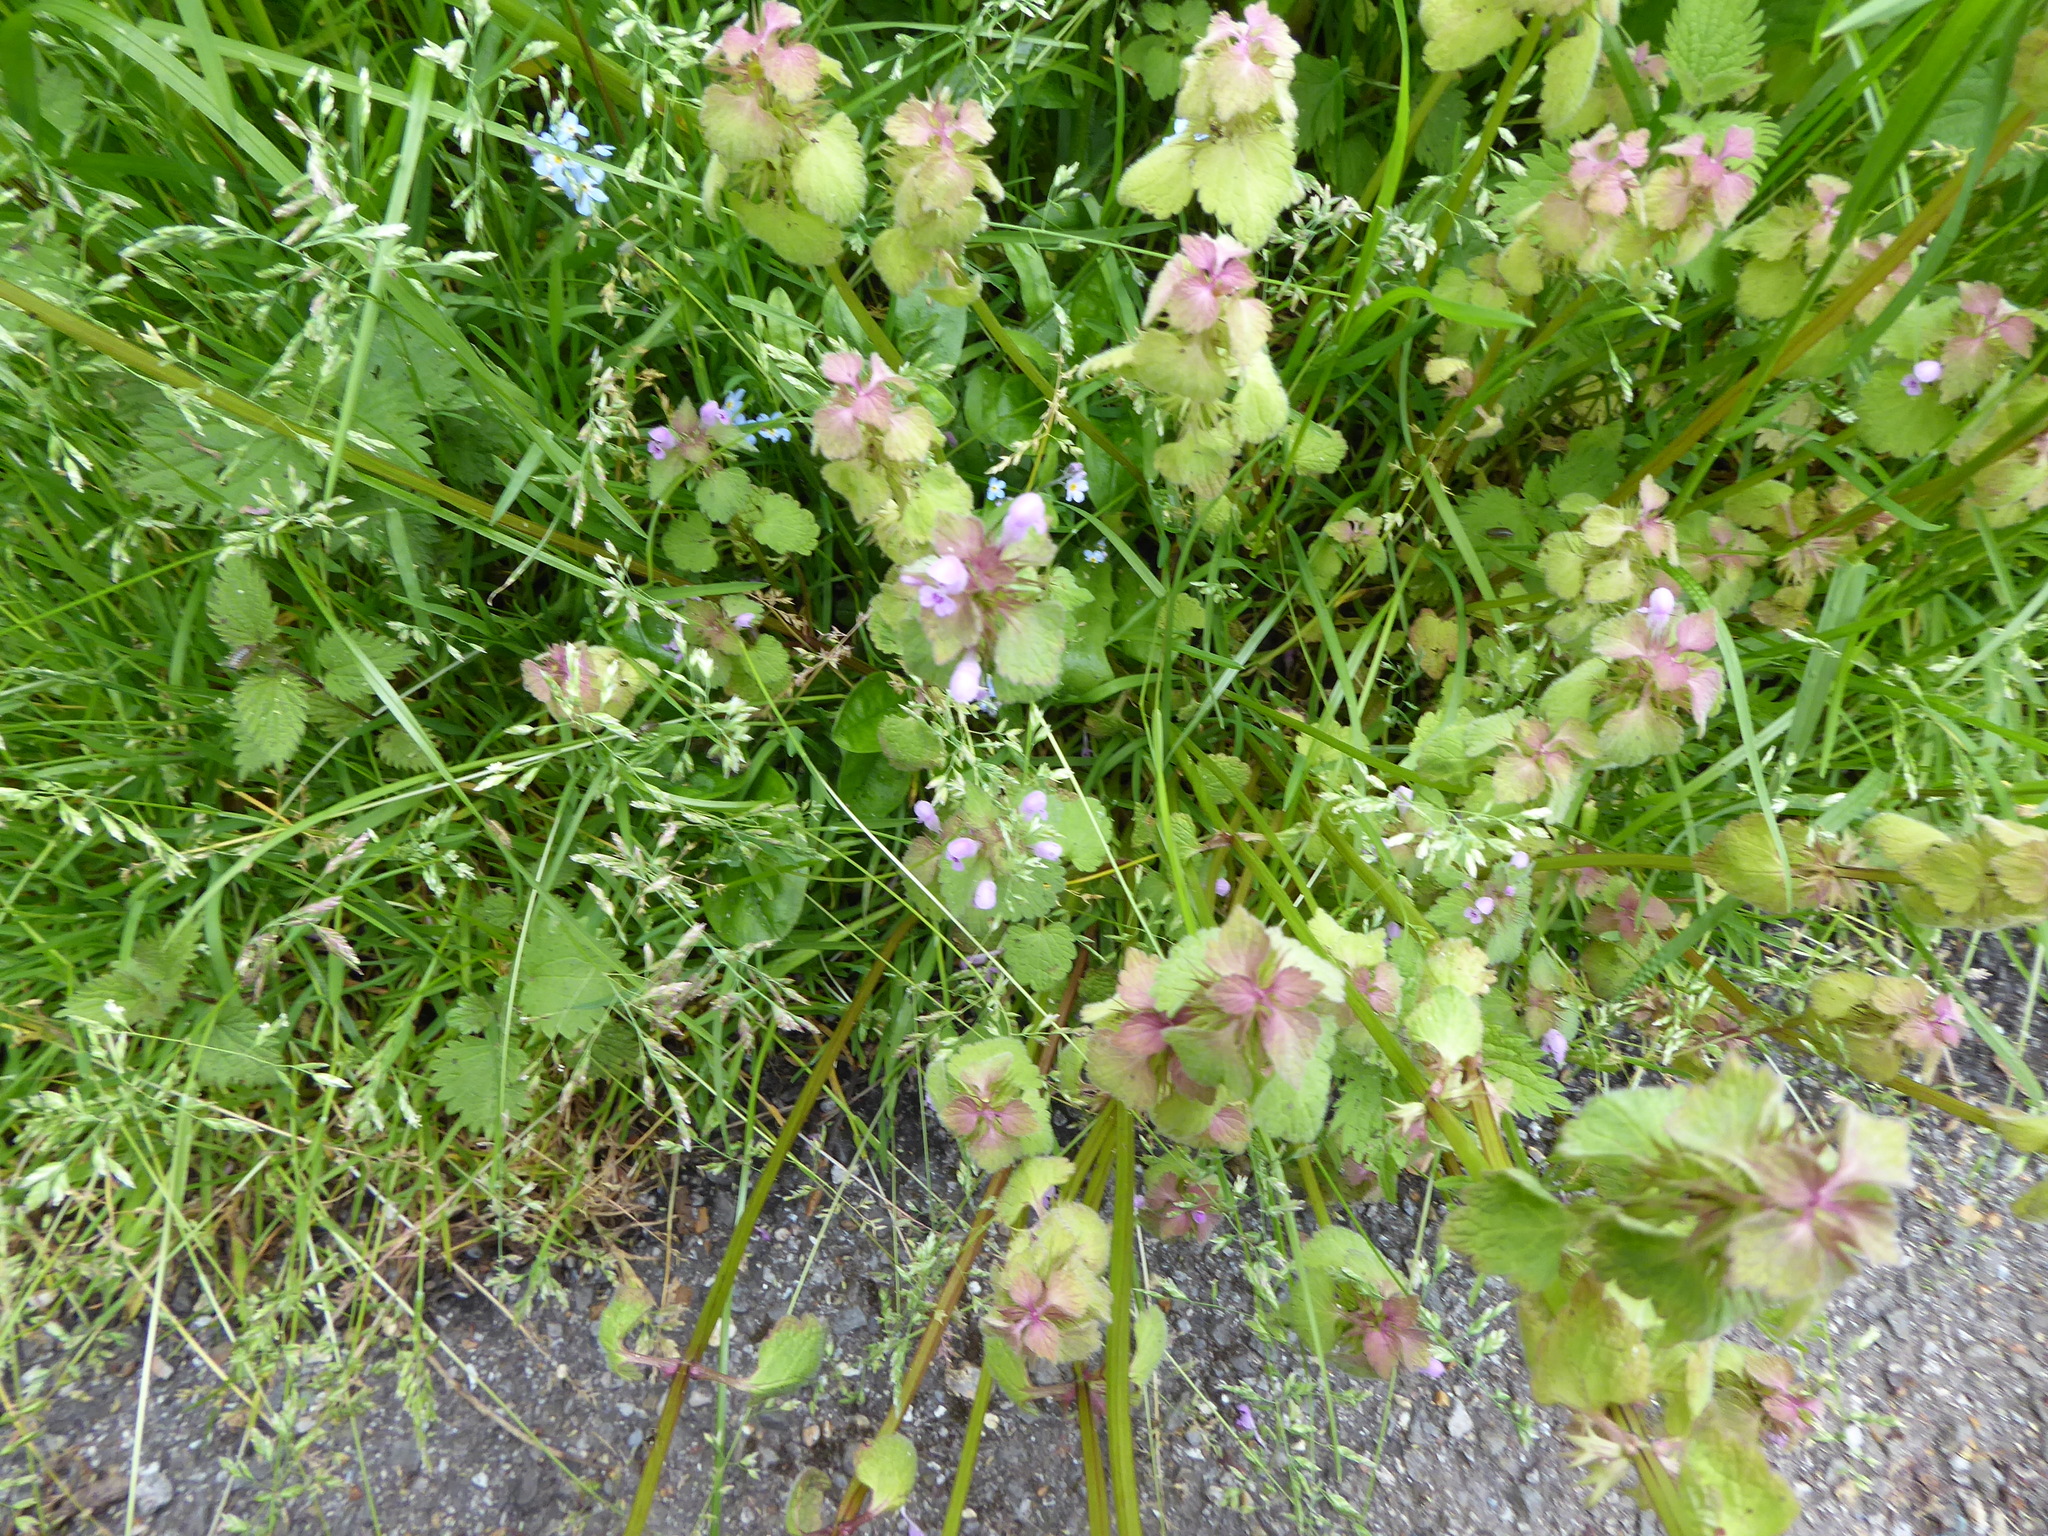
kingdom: Plantae
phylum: Tracheophyta
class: Magnoliopsida
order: Lamiales
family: Lamiaceae
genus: Lamium
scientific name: Lamium purpureum
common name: Red dead-nettle
